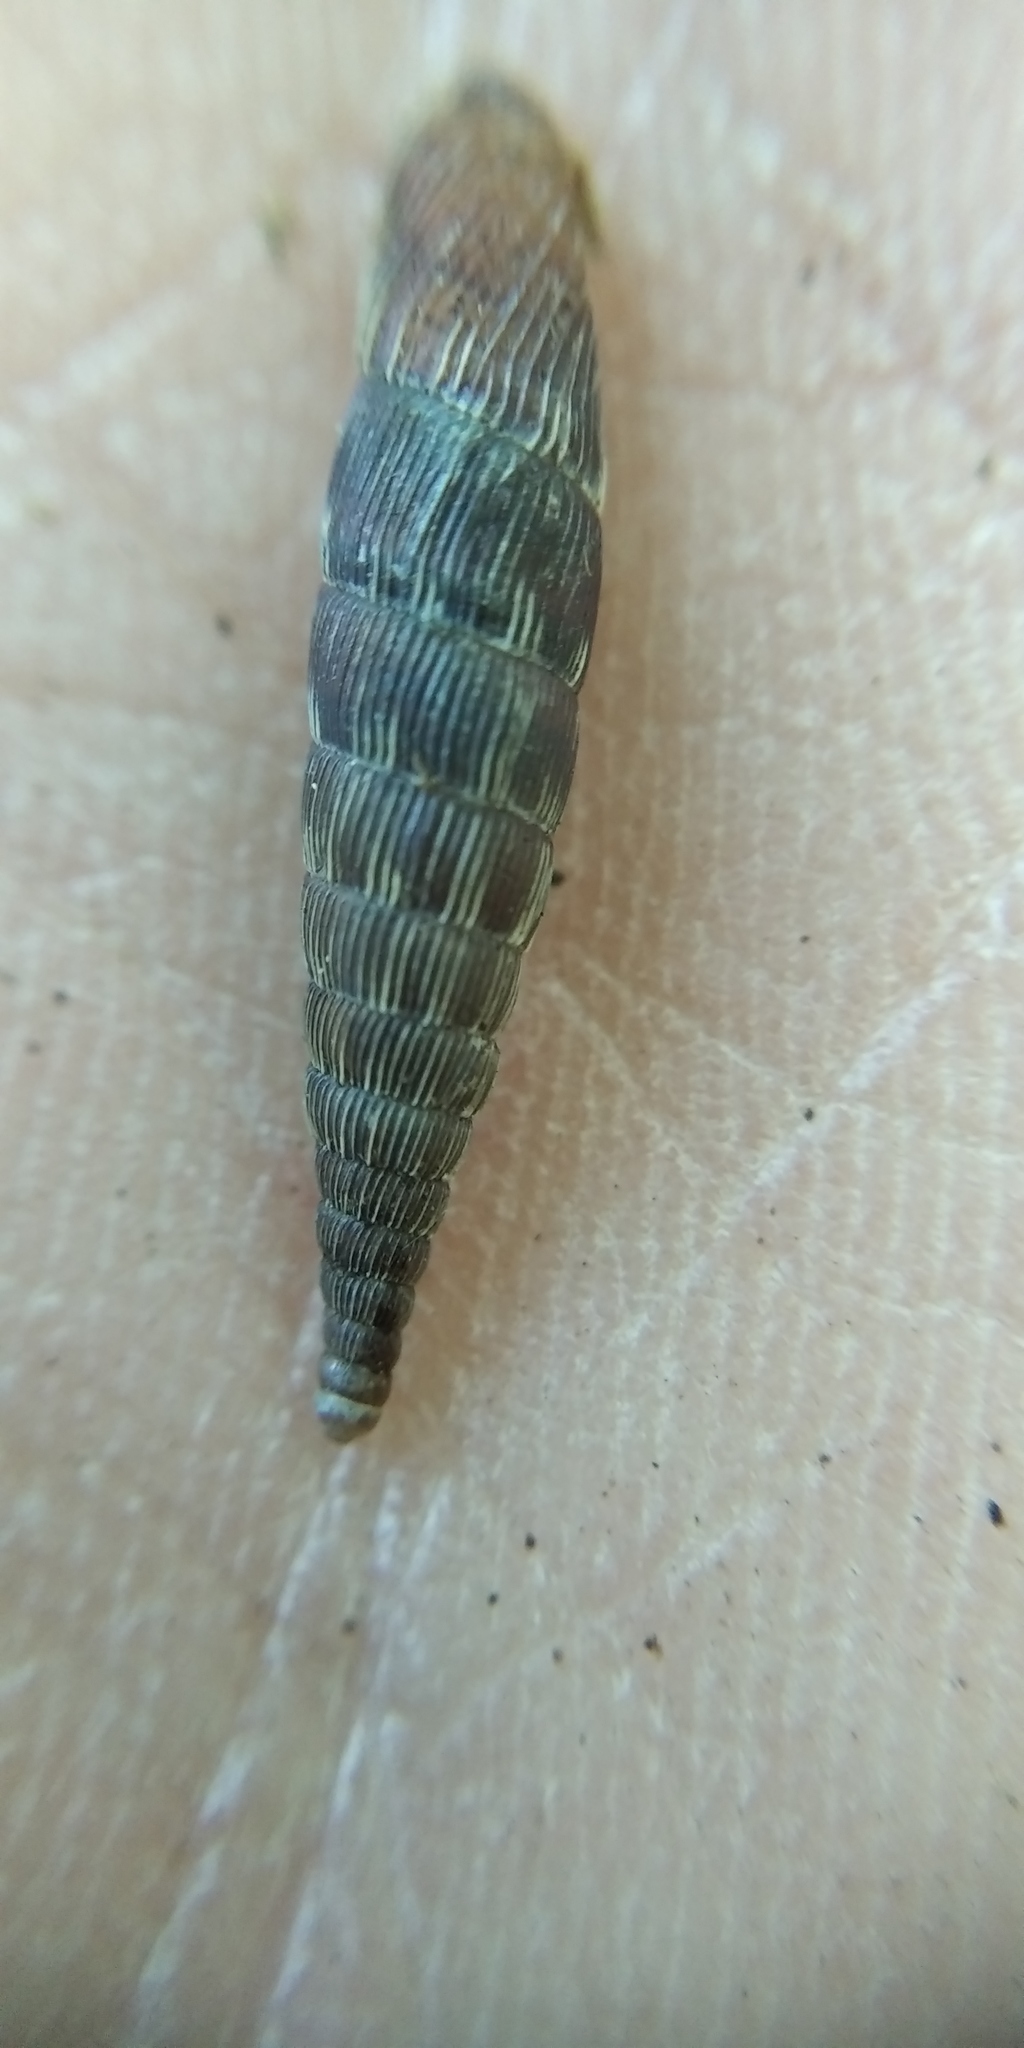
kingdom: Animalia
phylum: Mollusca
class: Gastropoda
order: Stylommatophora
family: Clausiliidae
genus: Laciniaria
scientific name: Laciniaria plicata
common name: Single-lipped door snail
